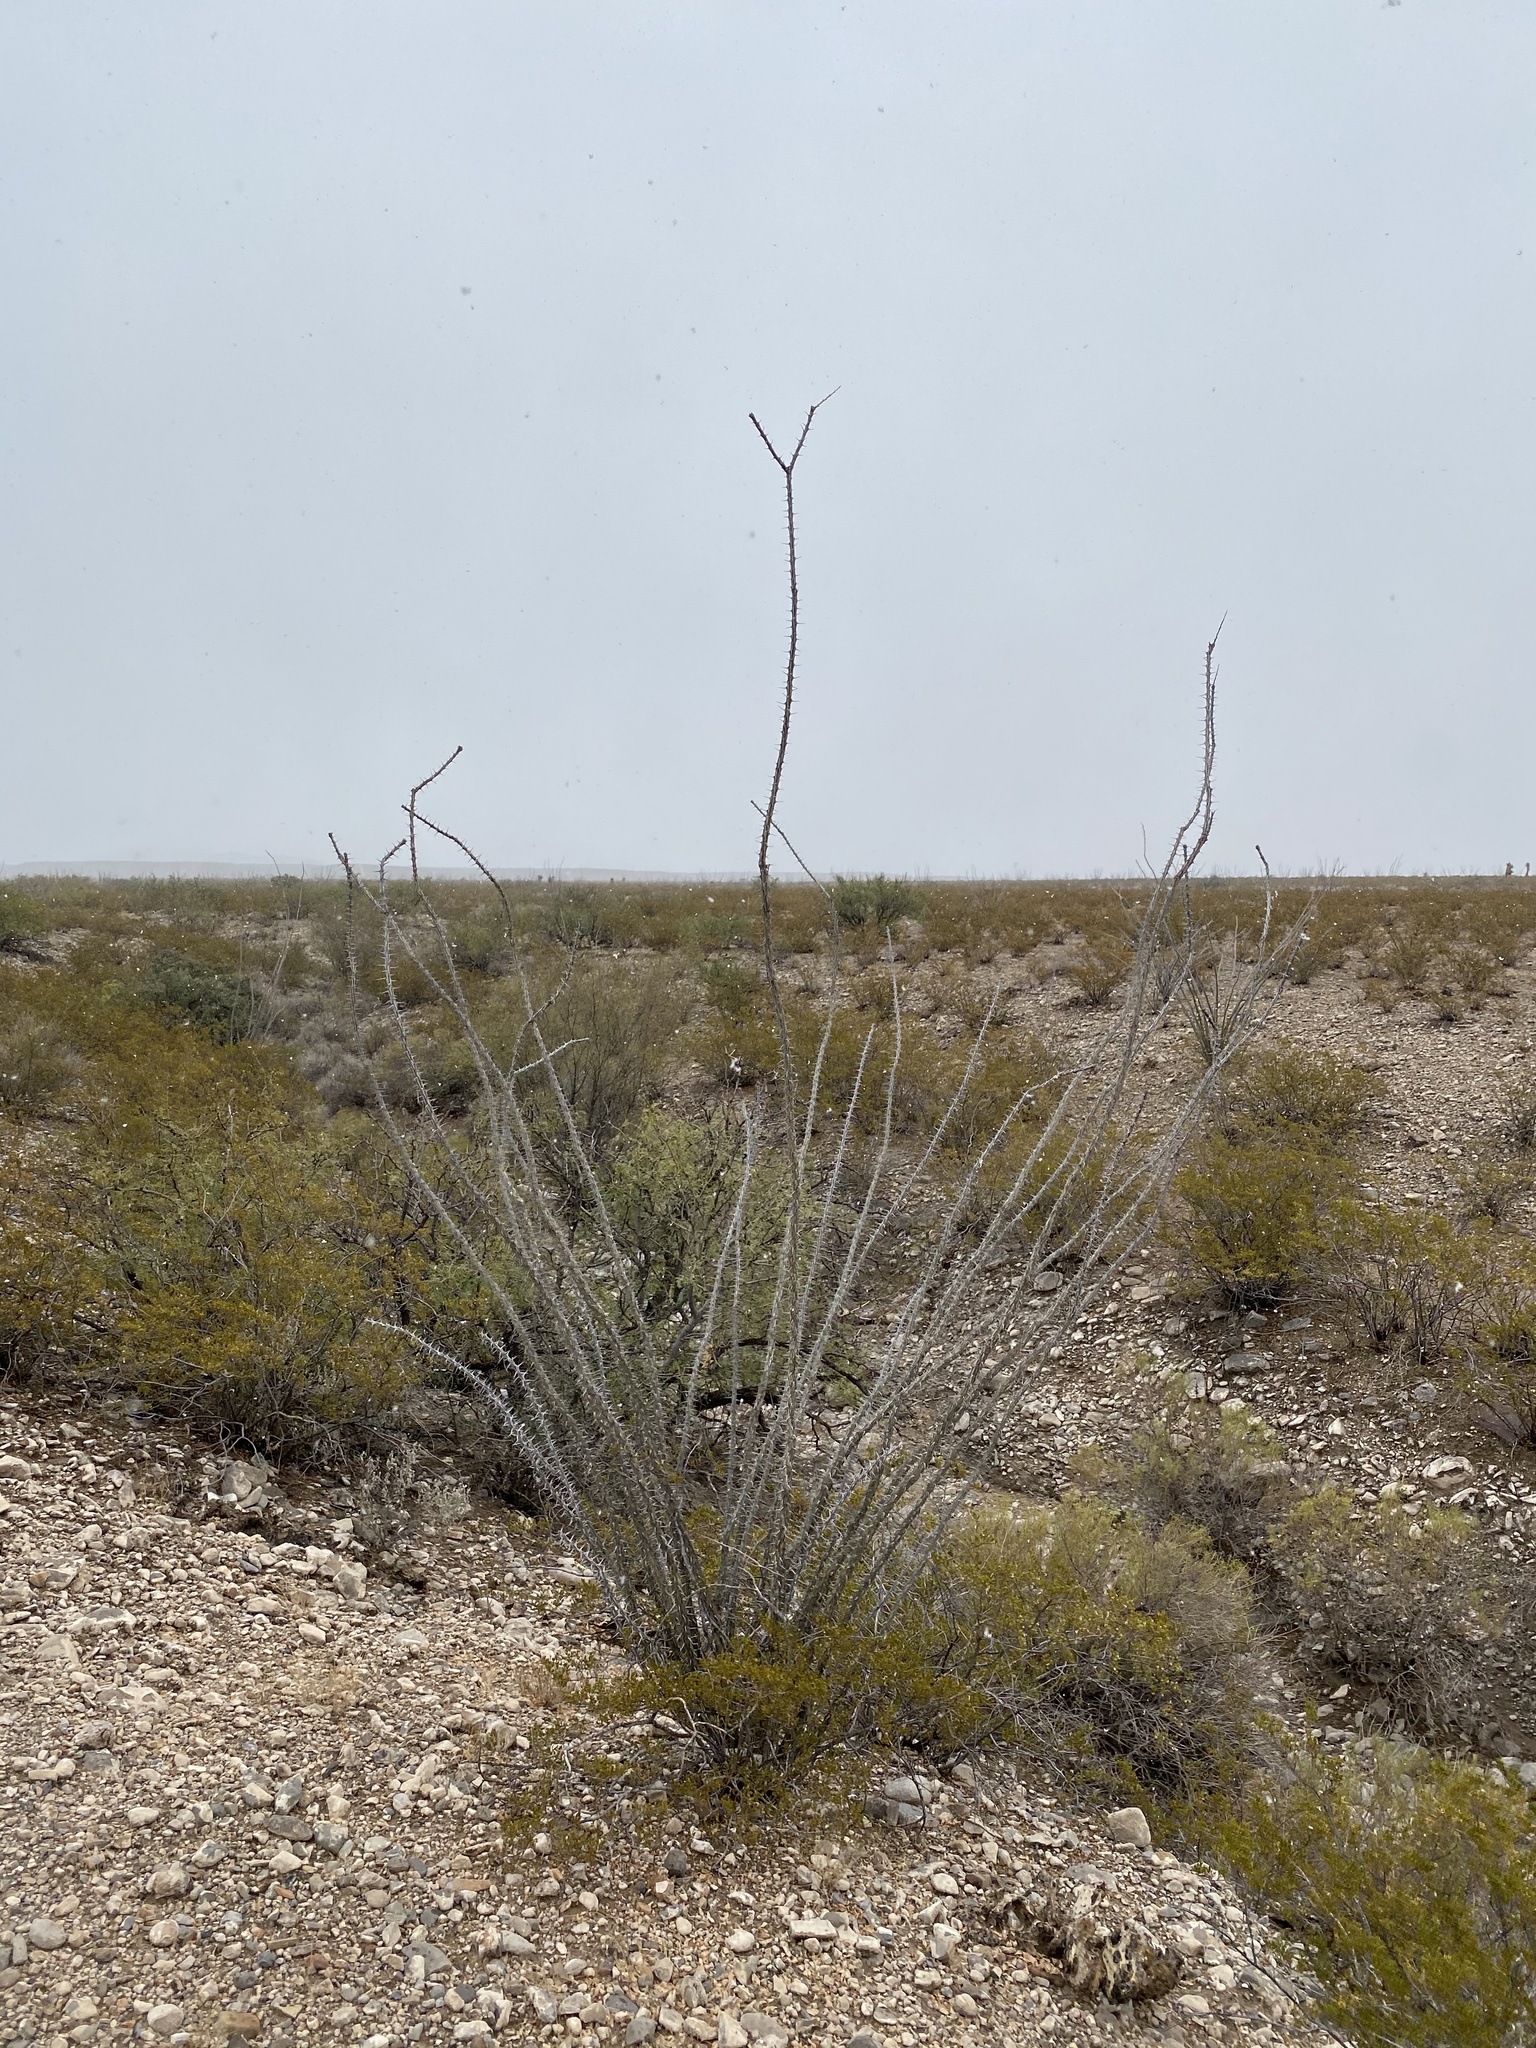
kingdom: Plantae
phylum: Tracheophyta
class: Magnoliopsida
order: Ericales
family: Fouquieriaceae
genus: Fouquieria
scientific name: Fouquieria splendens
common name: Vine-cactus
